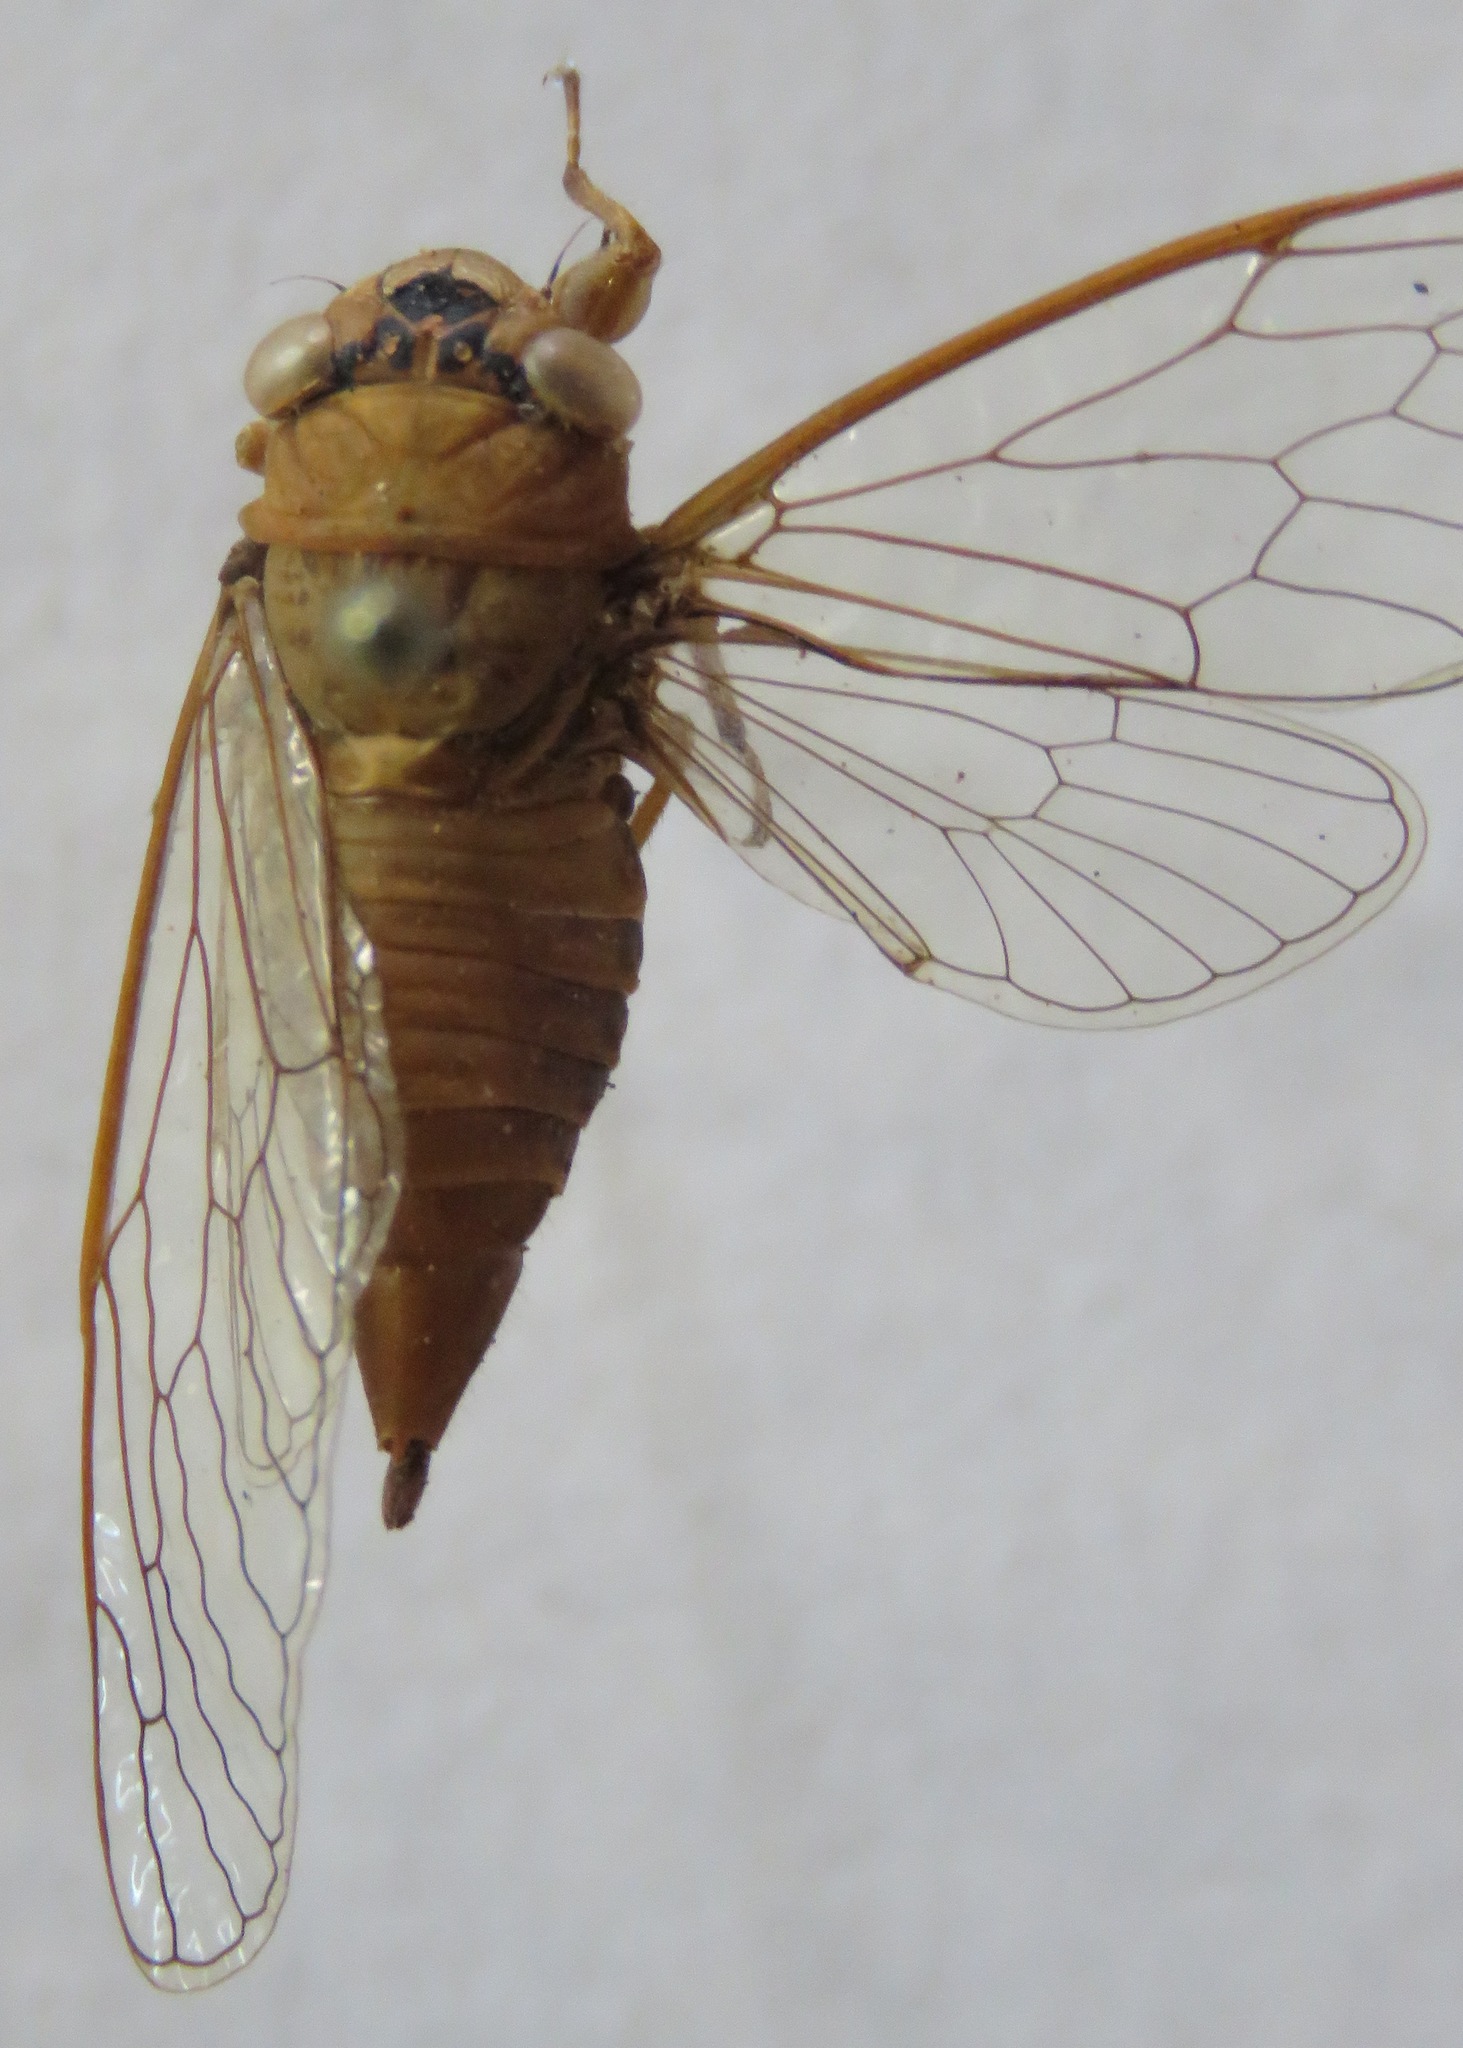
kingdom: Animalia
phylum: Arthropoda
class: Insecta
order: Hemiptera
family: Cicadidae
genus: Herrera
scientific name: Herrera coyamensis
